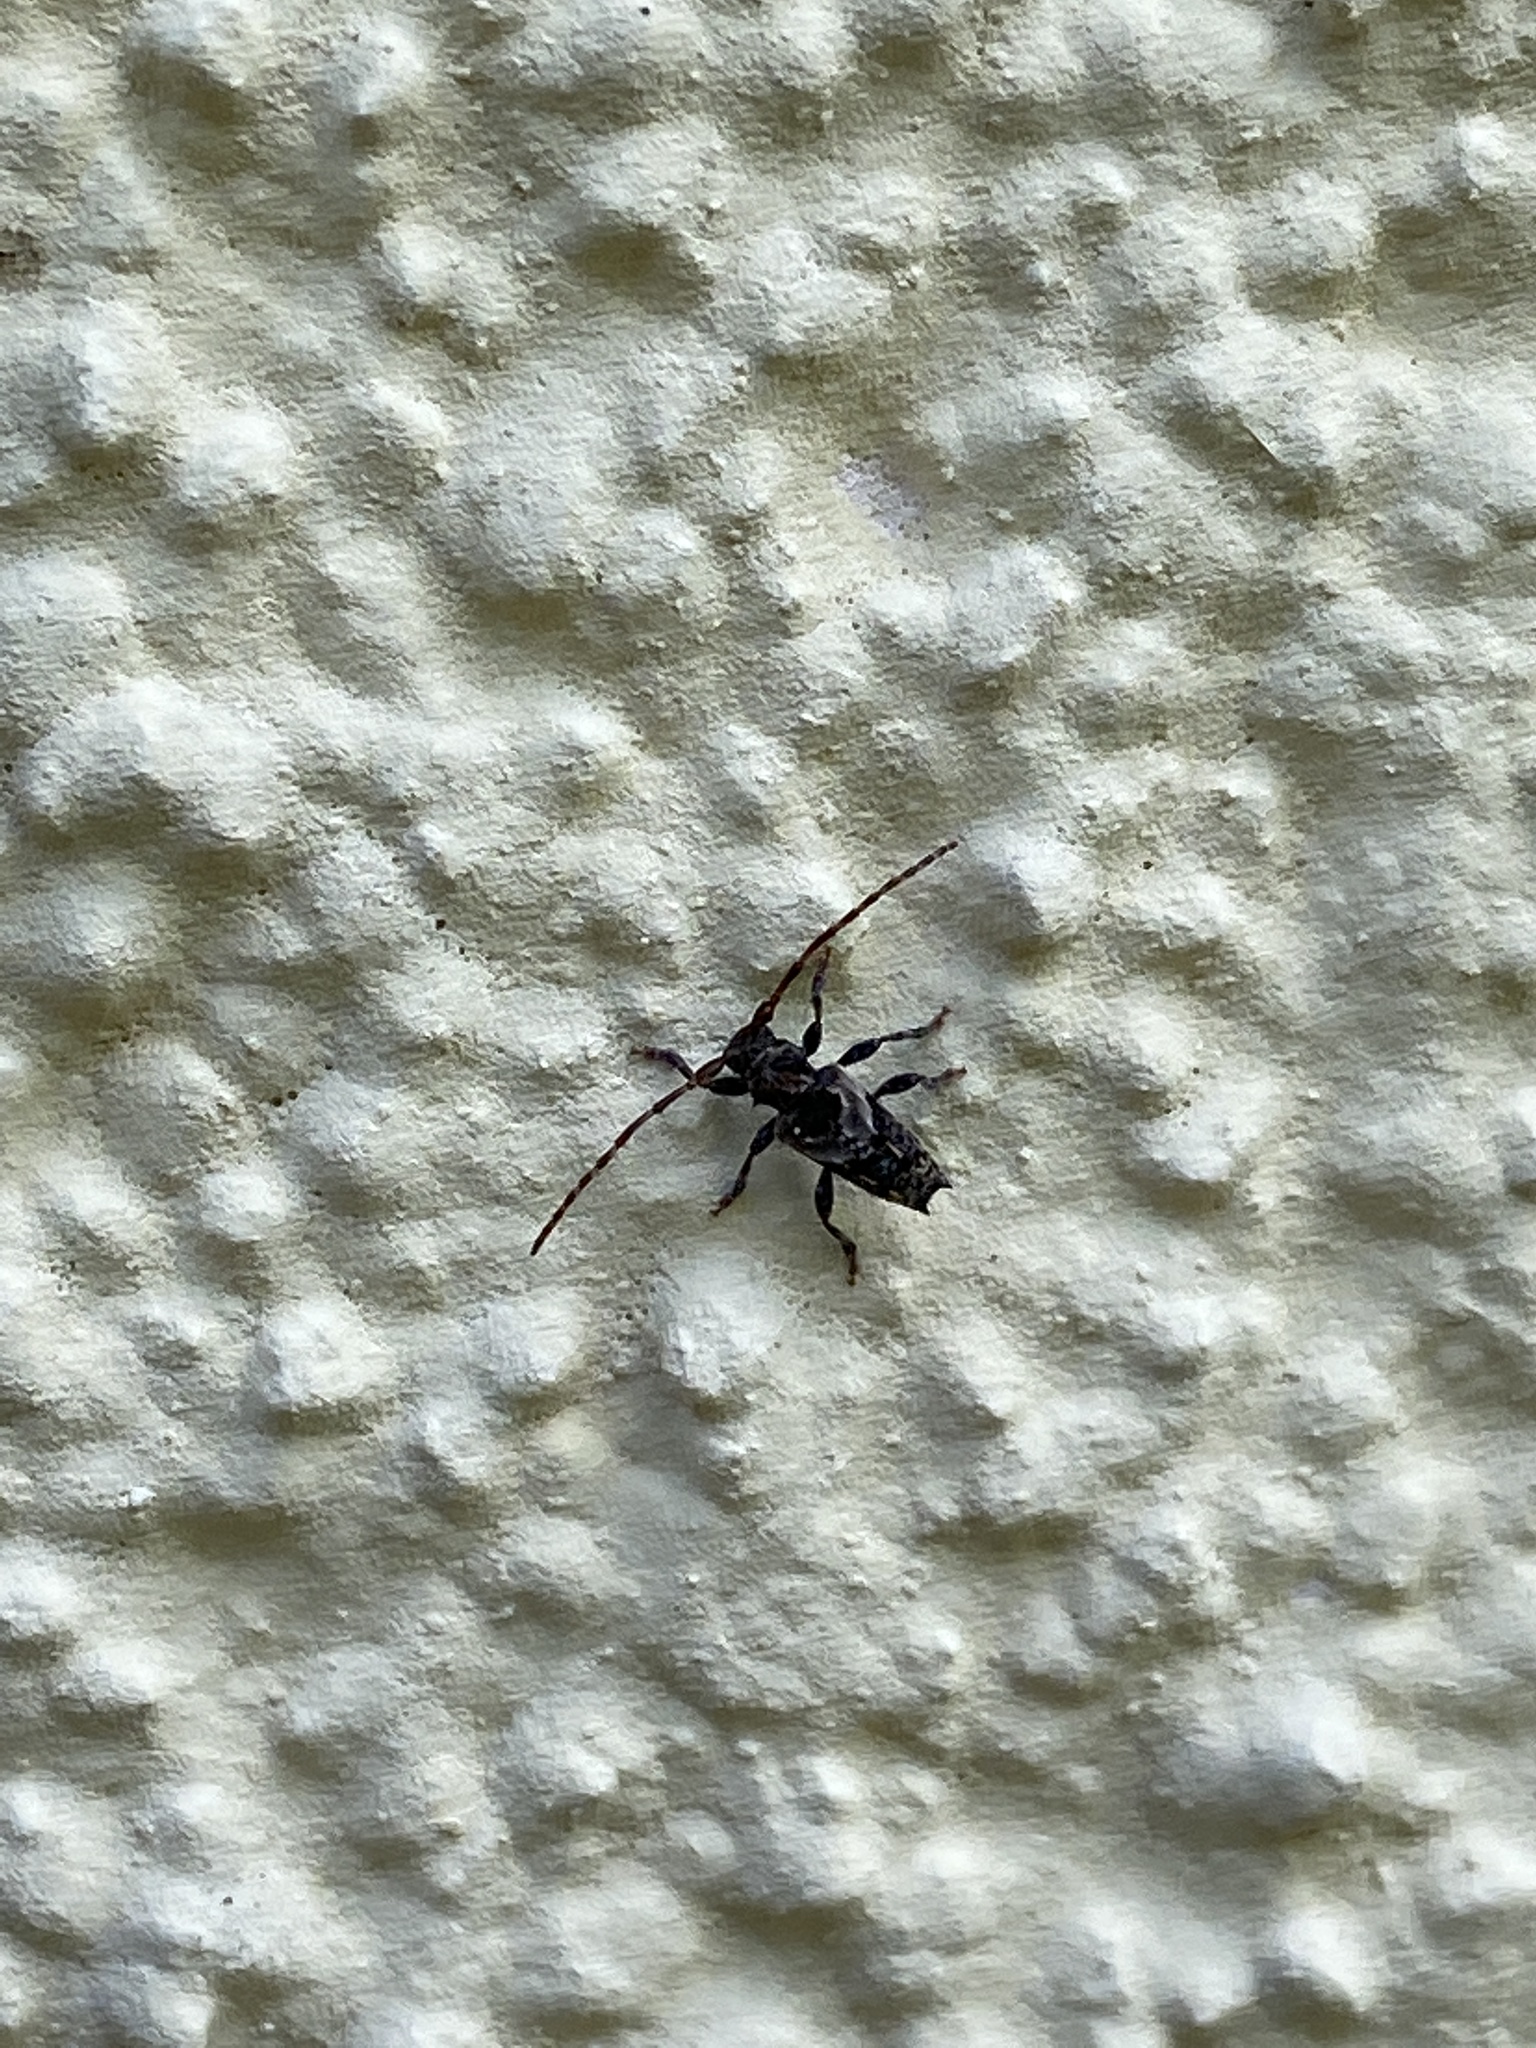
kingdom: Animalia
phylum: Arthropoda
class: Insecta
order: Coleoptera
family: Cerambycidae
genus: Pogonocherus
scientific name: Pogonocherus hispidus
